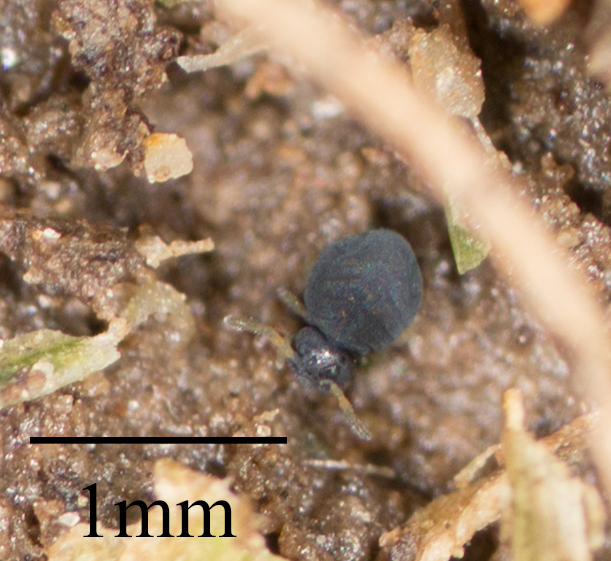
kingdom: Animalia
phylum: Arthropoda
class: Collembola
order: Symphypleona
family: Katiannidae
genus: Sminthurinus
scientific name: Sminthurinus atrapallidus
